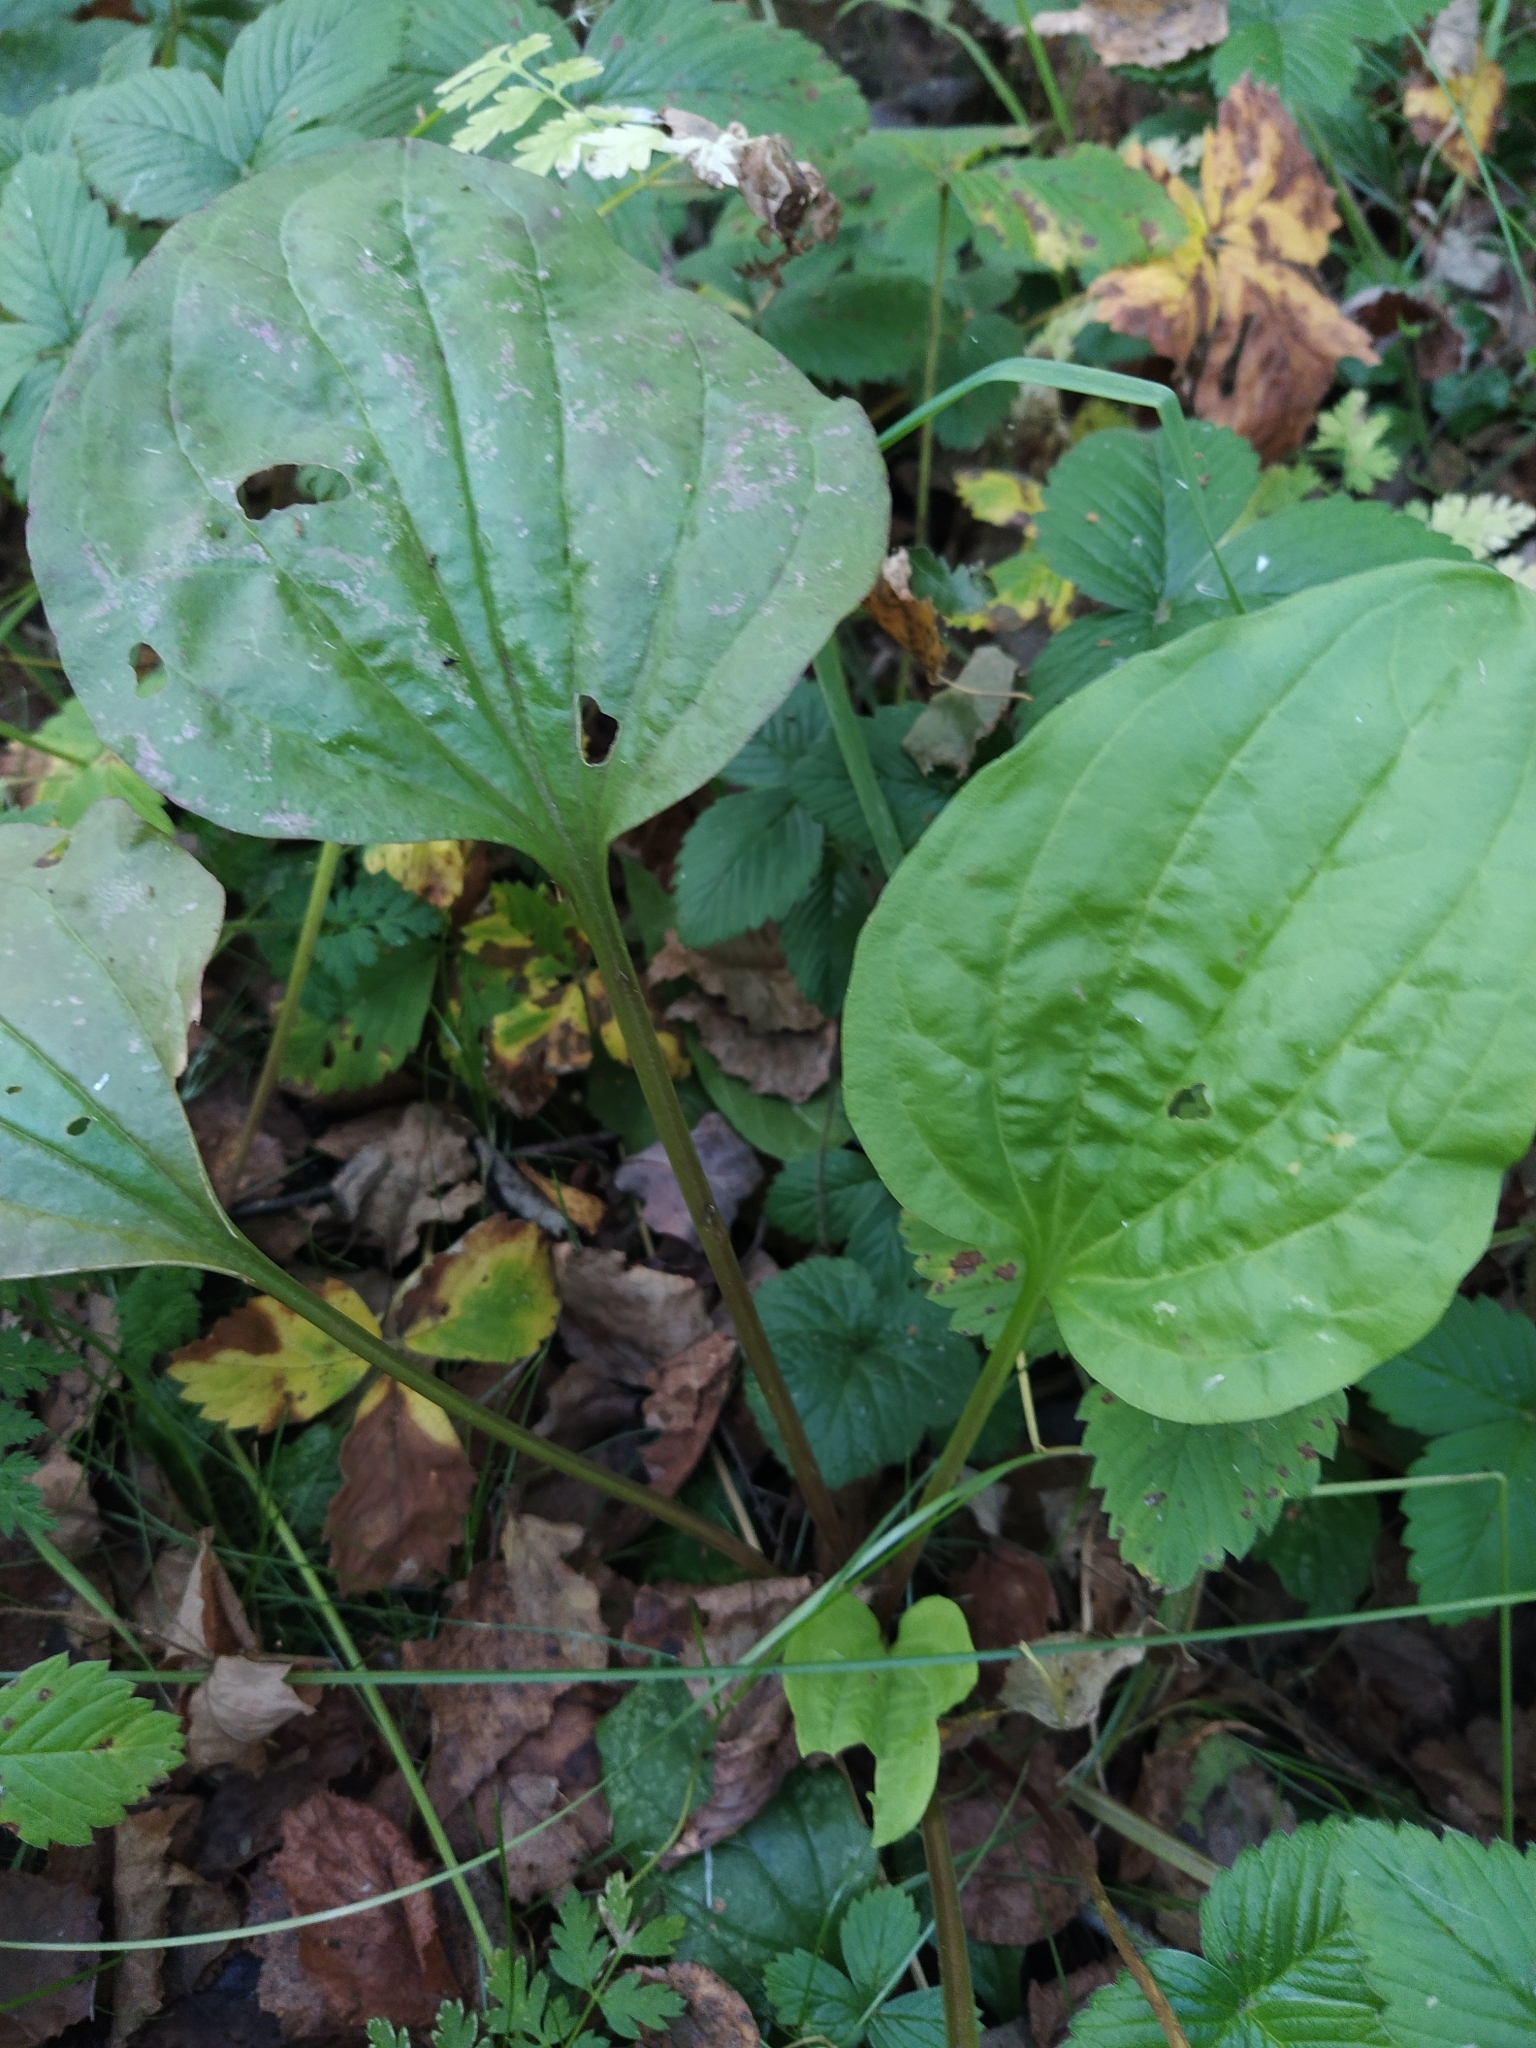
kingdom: Plantae
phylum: Tracheophyta
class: Magnoliopsida
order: Lamiales
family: Plantaginaceae
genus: Plantago
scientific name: Plantago major
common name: Common plantain
